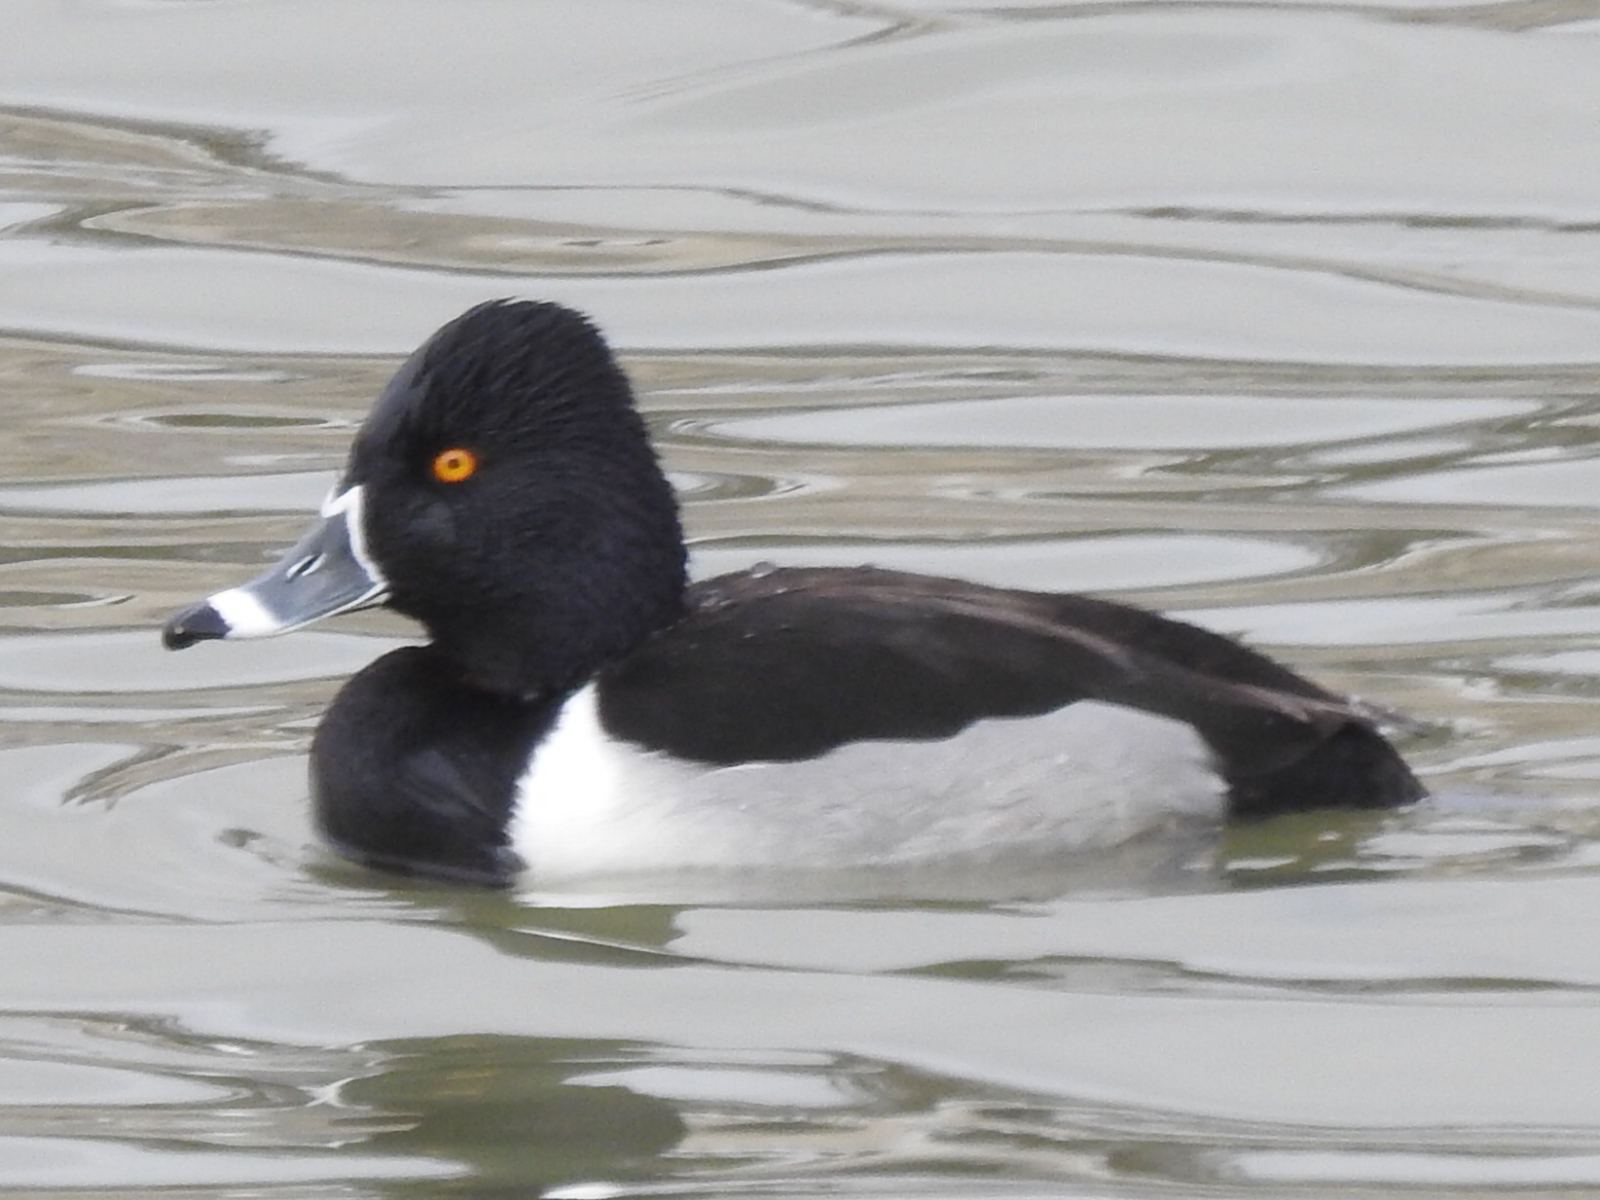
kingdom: Animalia
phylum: Chordata
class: Aves
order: Anseriformes
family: Anatidae
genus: Aythya
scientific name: Aythya collaris
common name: Ring-necked duck
